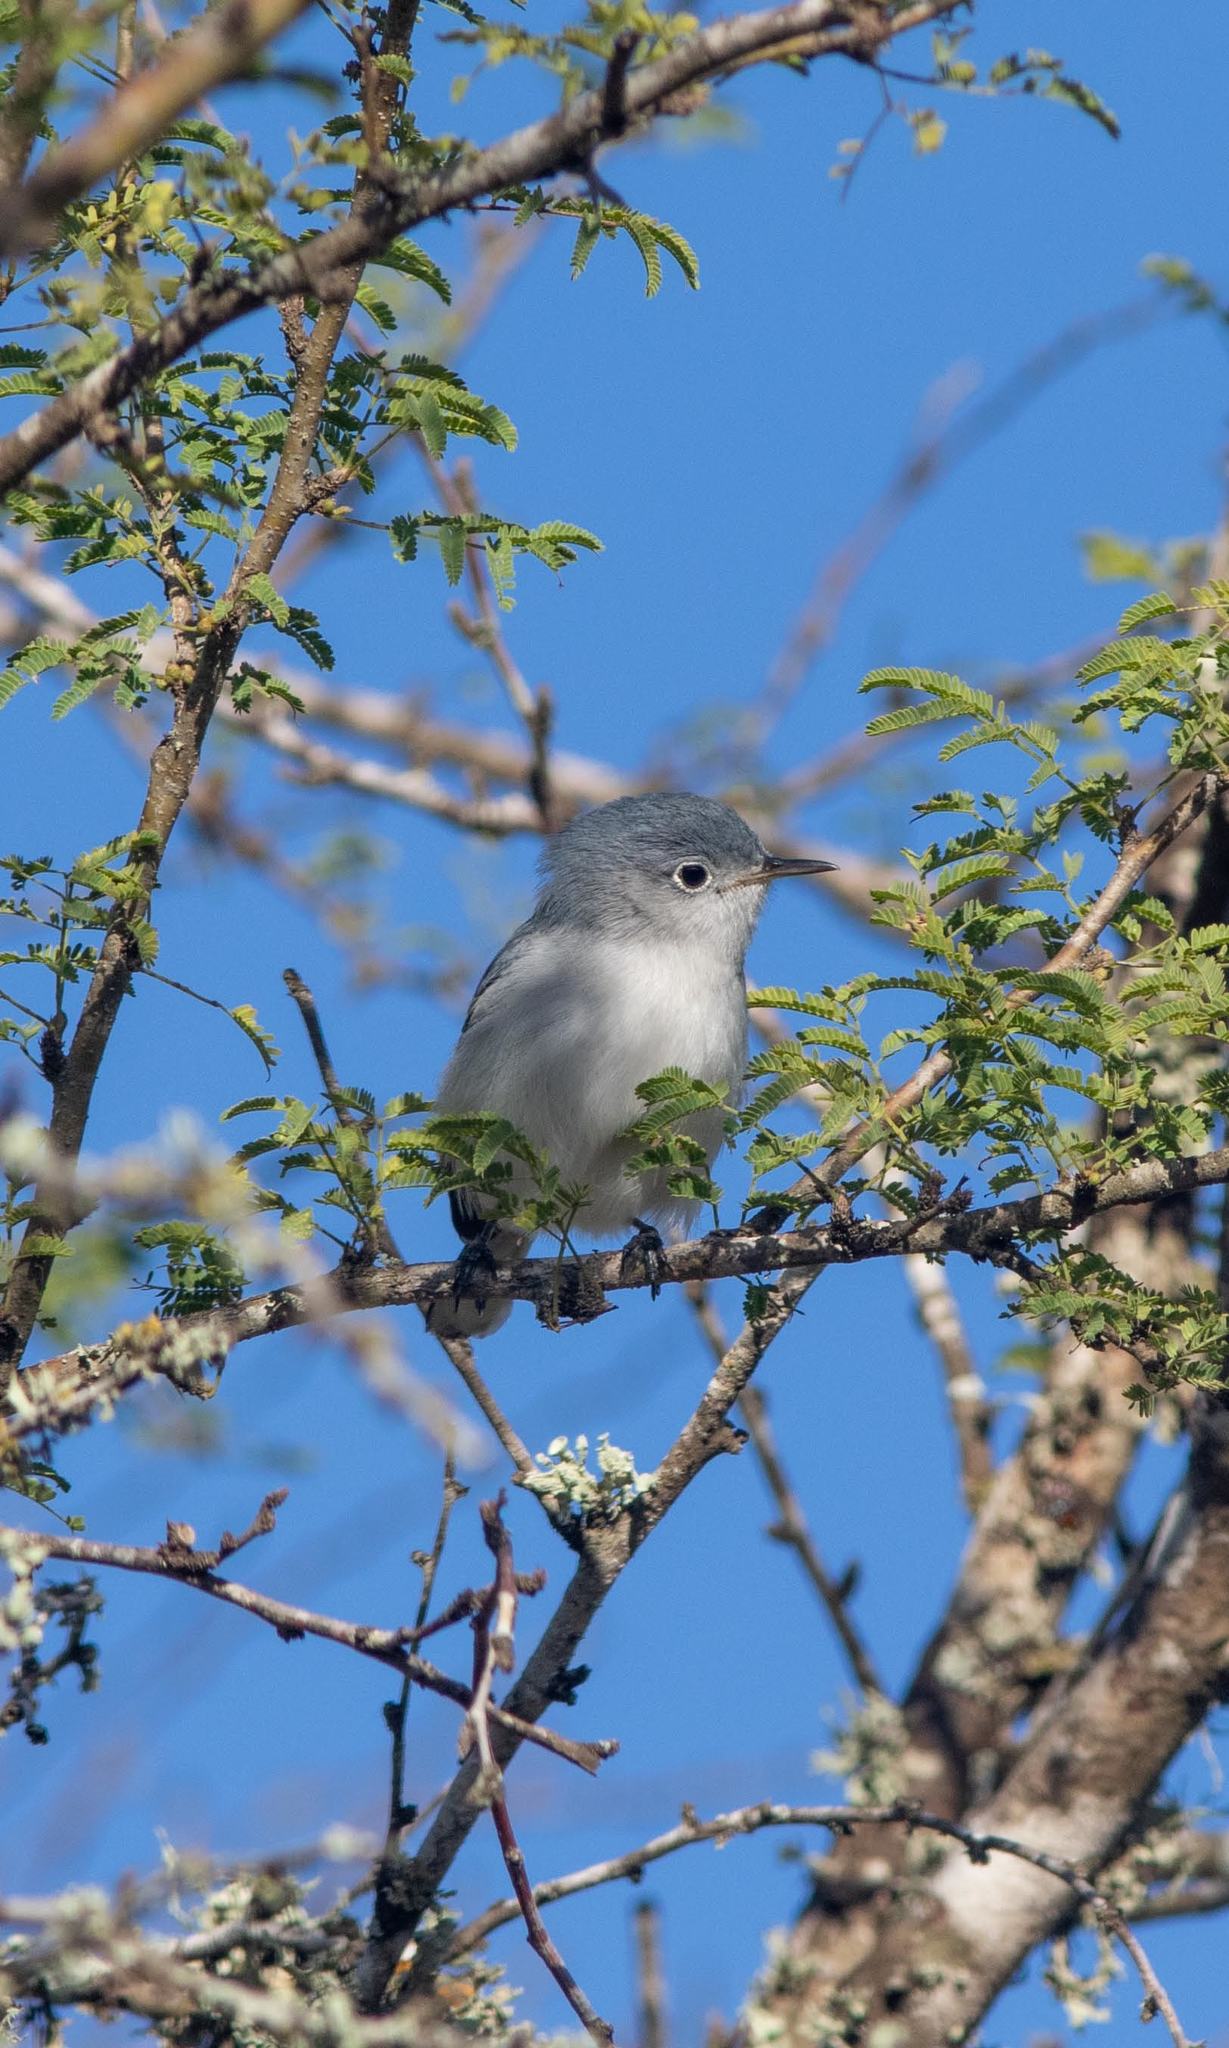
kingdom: Animalia
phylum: Chordata
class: Aves
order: Passeriformes
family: Polioptilidae
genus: Polioptila
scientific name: Polioptila caerulea
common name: Blue-gray gnatcatcher
